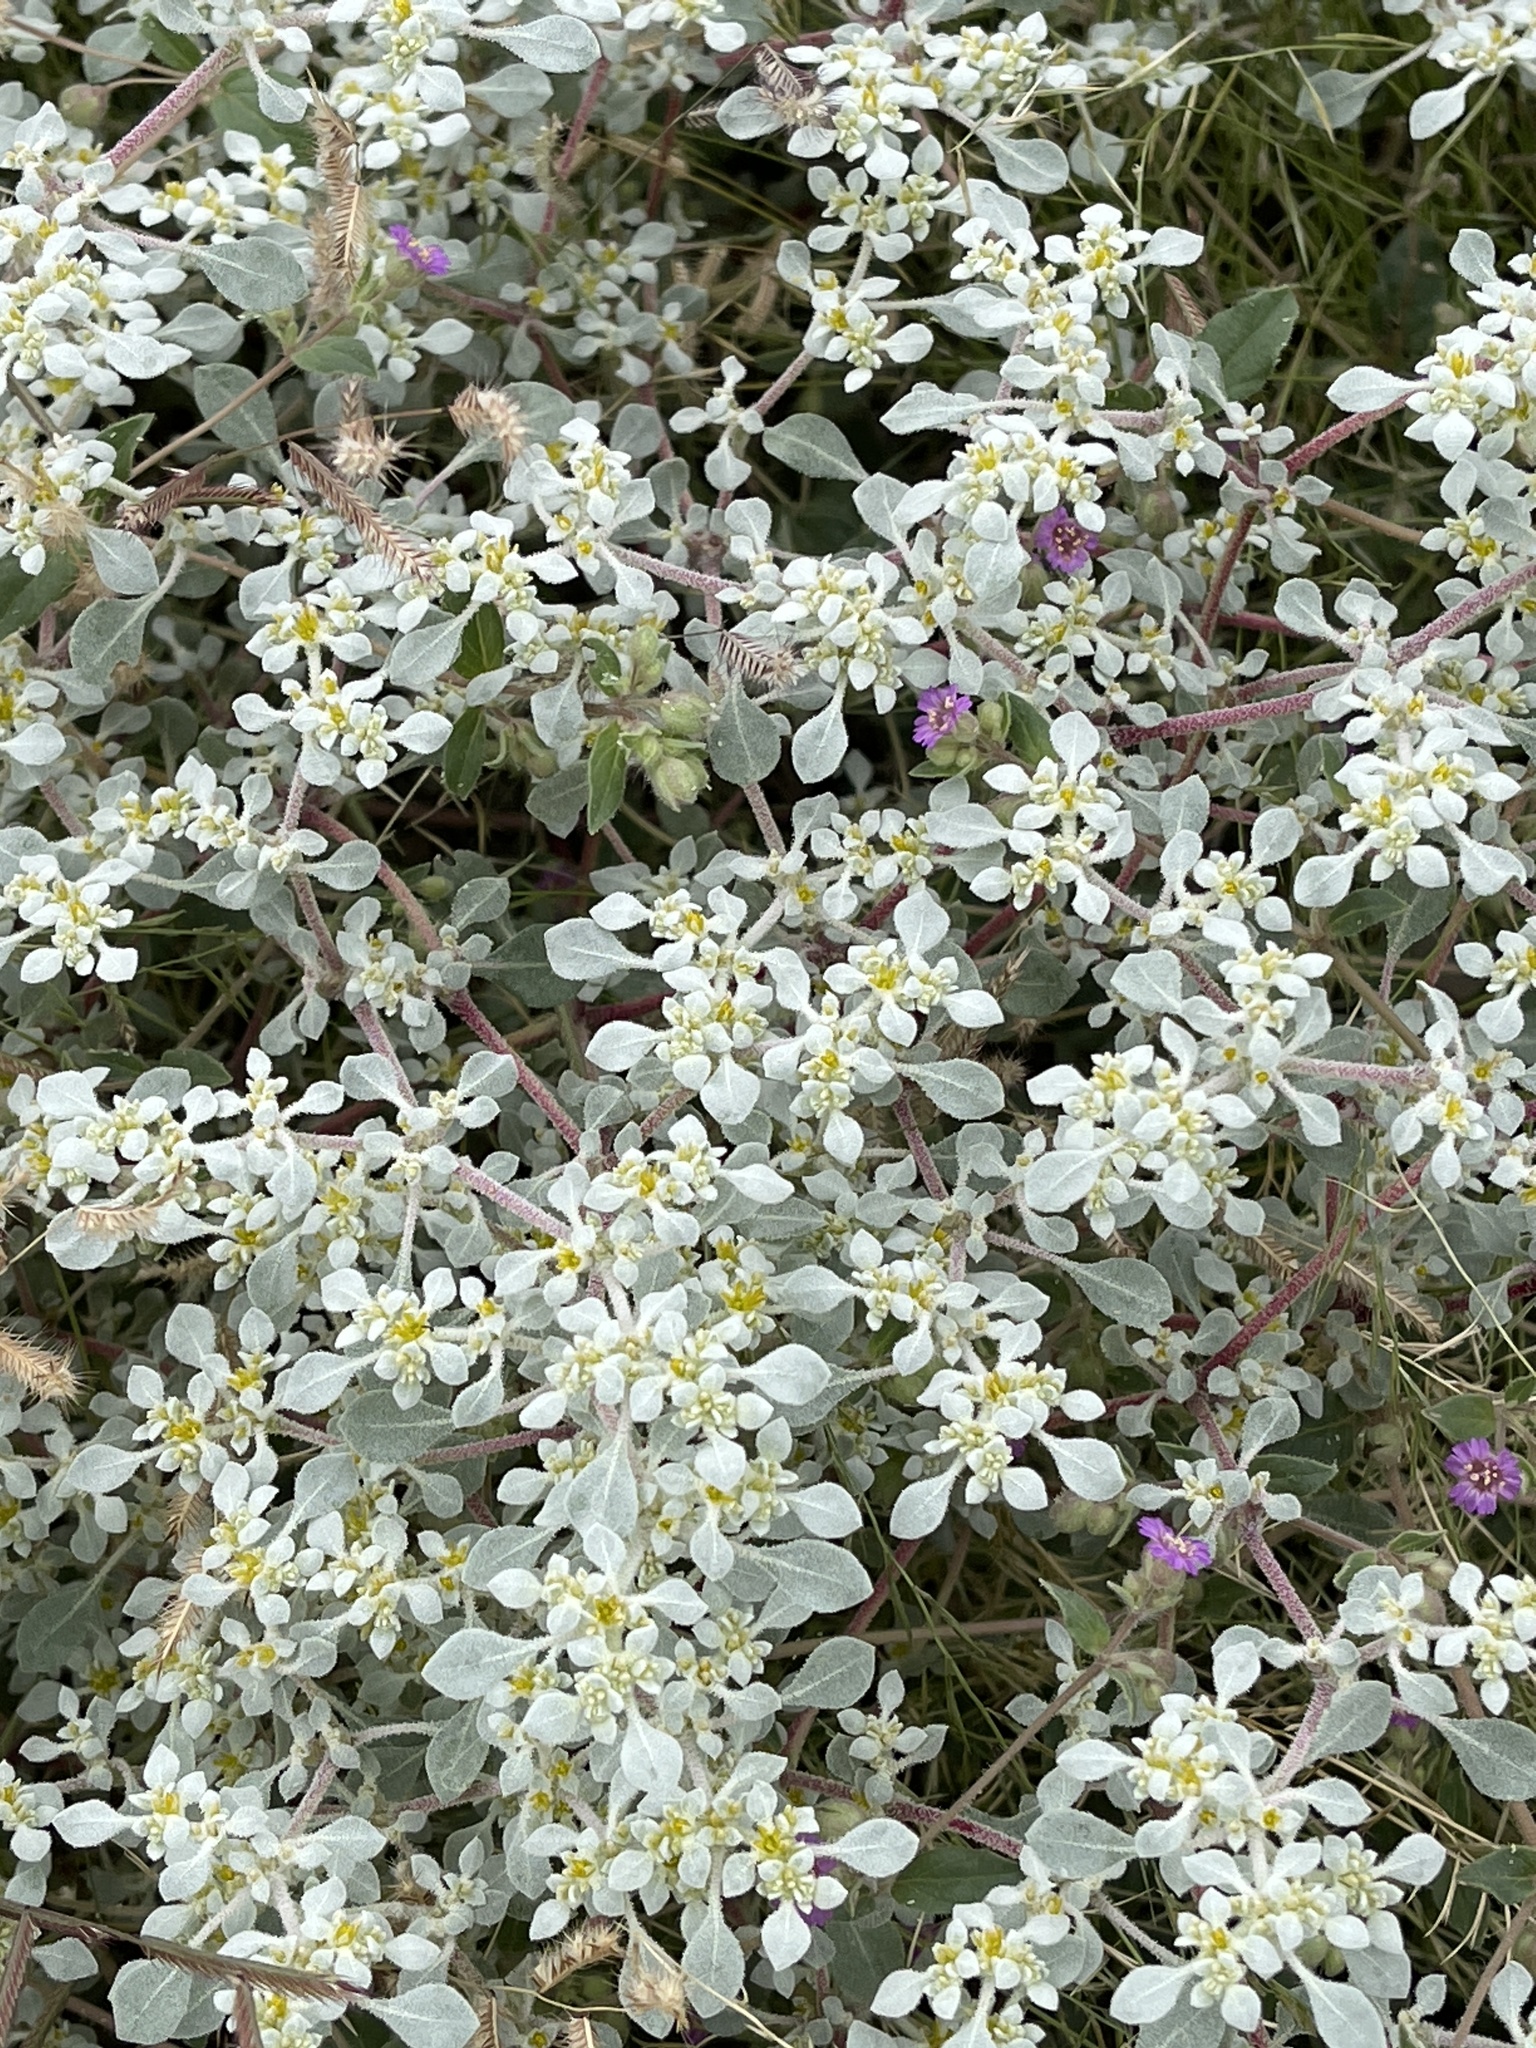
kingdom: Plantae
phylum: Tracheophyta
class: Magnoliopsida
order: Caryophyllales
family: Amaranthaceae
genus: Tidestromia
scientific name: Tidestromia lanuginosa
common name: Woolly tidestromia
